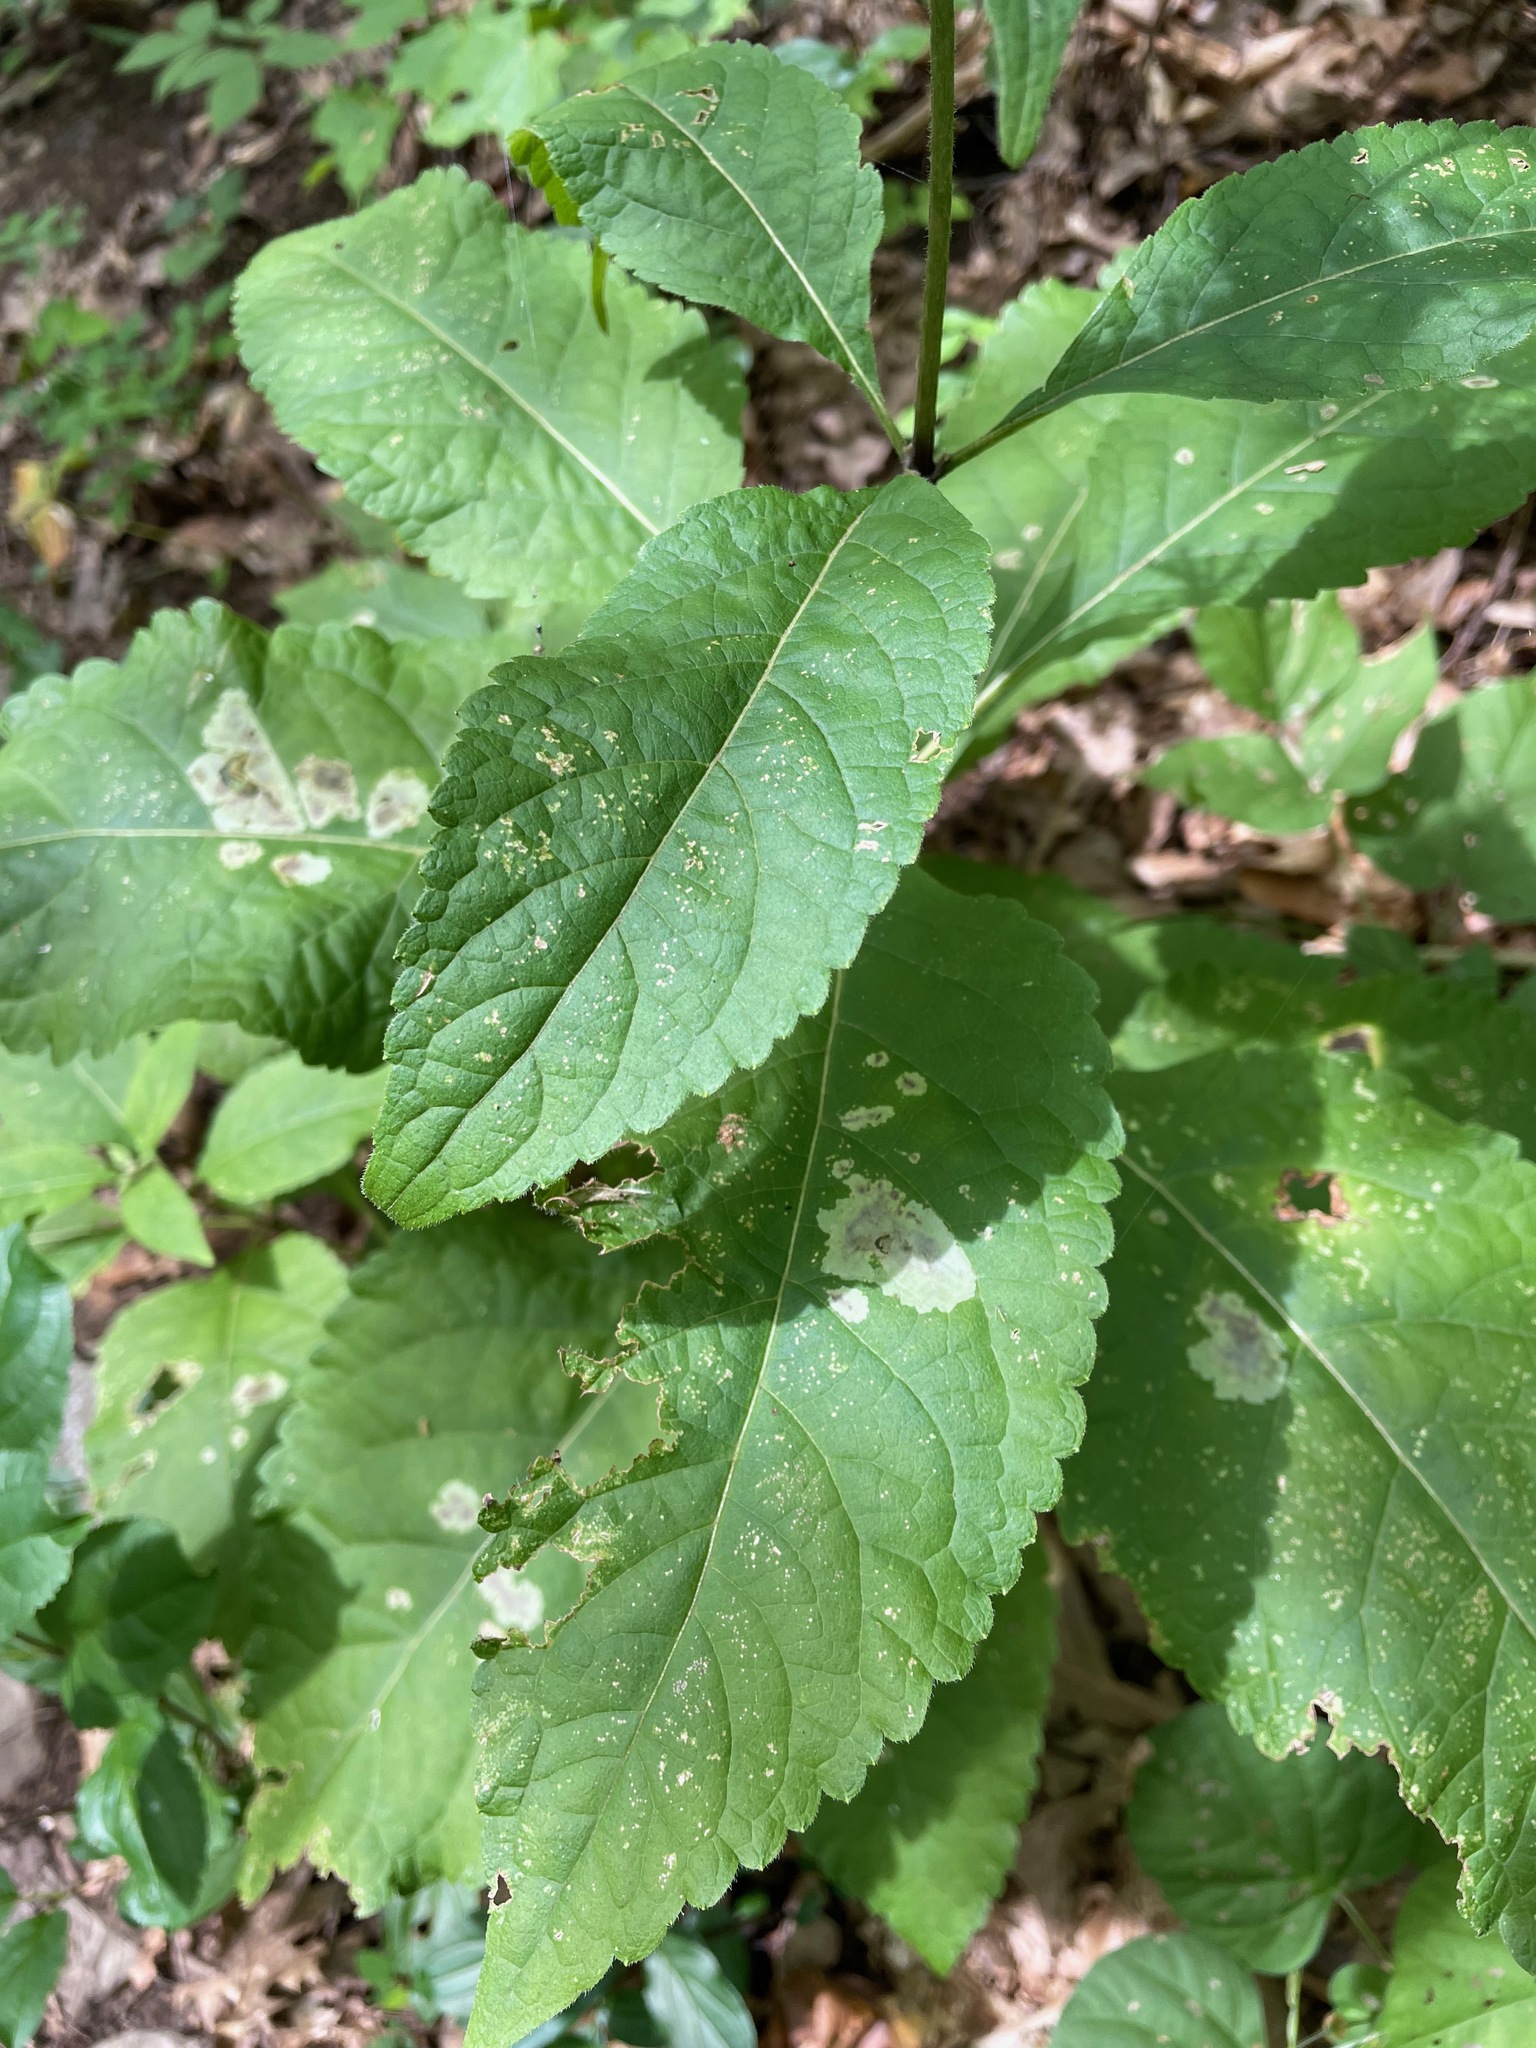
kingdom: Plantae
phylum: Tracheophyta
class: Magnoliopsida
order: Asterales
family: Asteraceae
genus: Eutrochium
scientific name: Eutrochium purpureum
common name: Gravelroot
